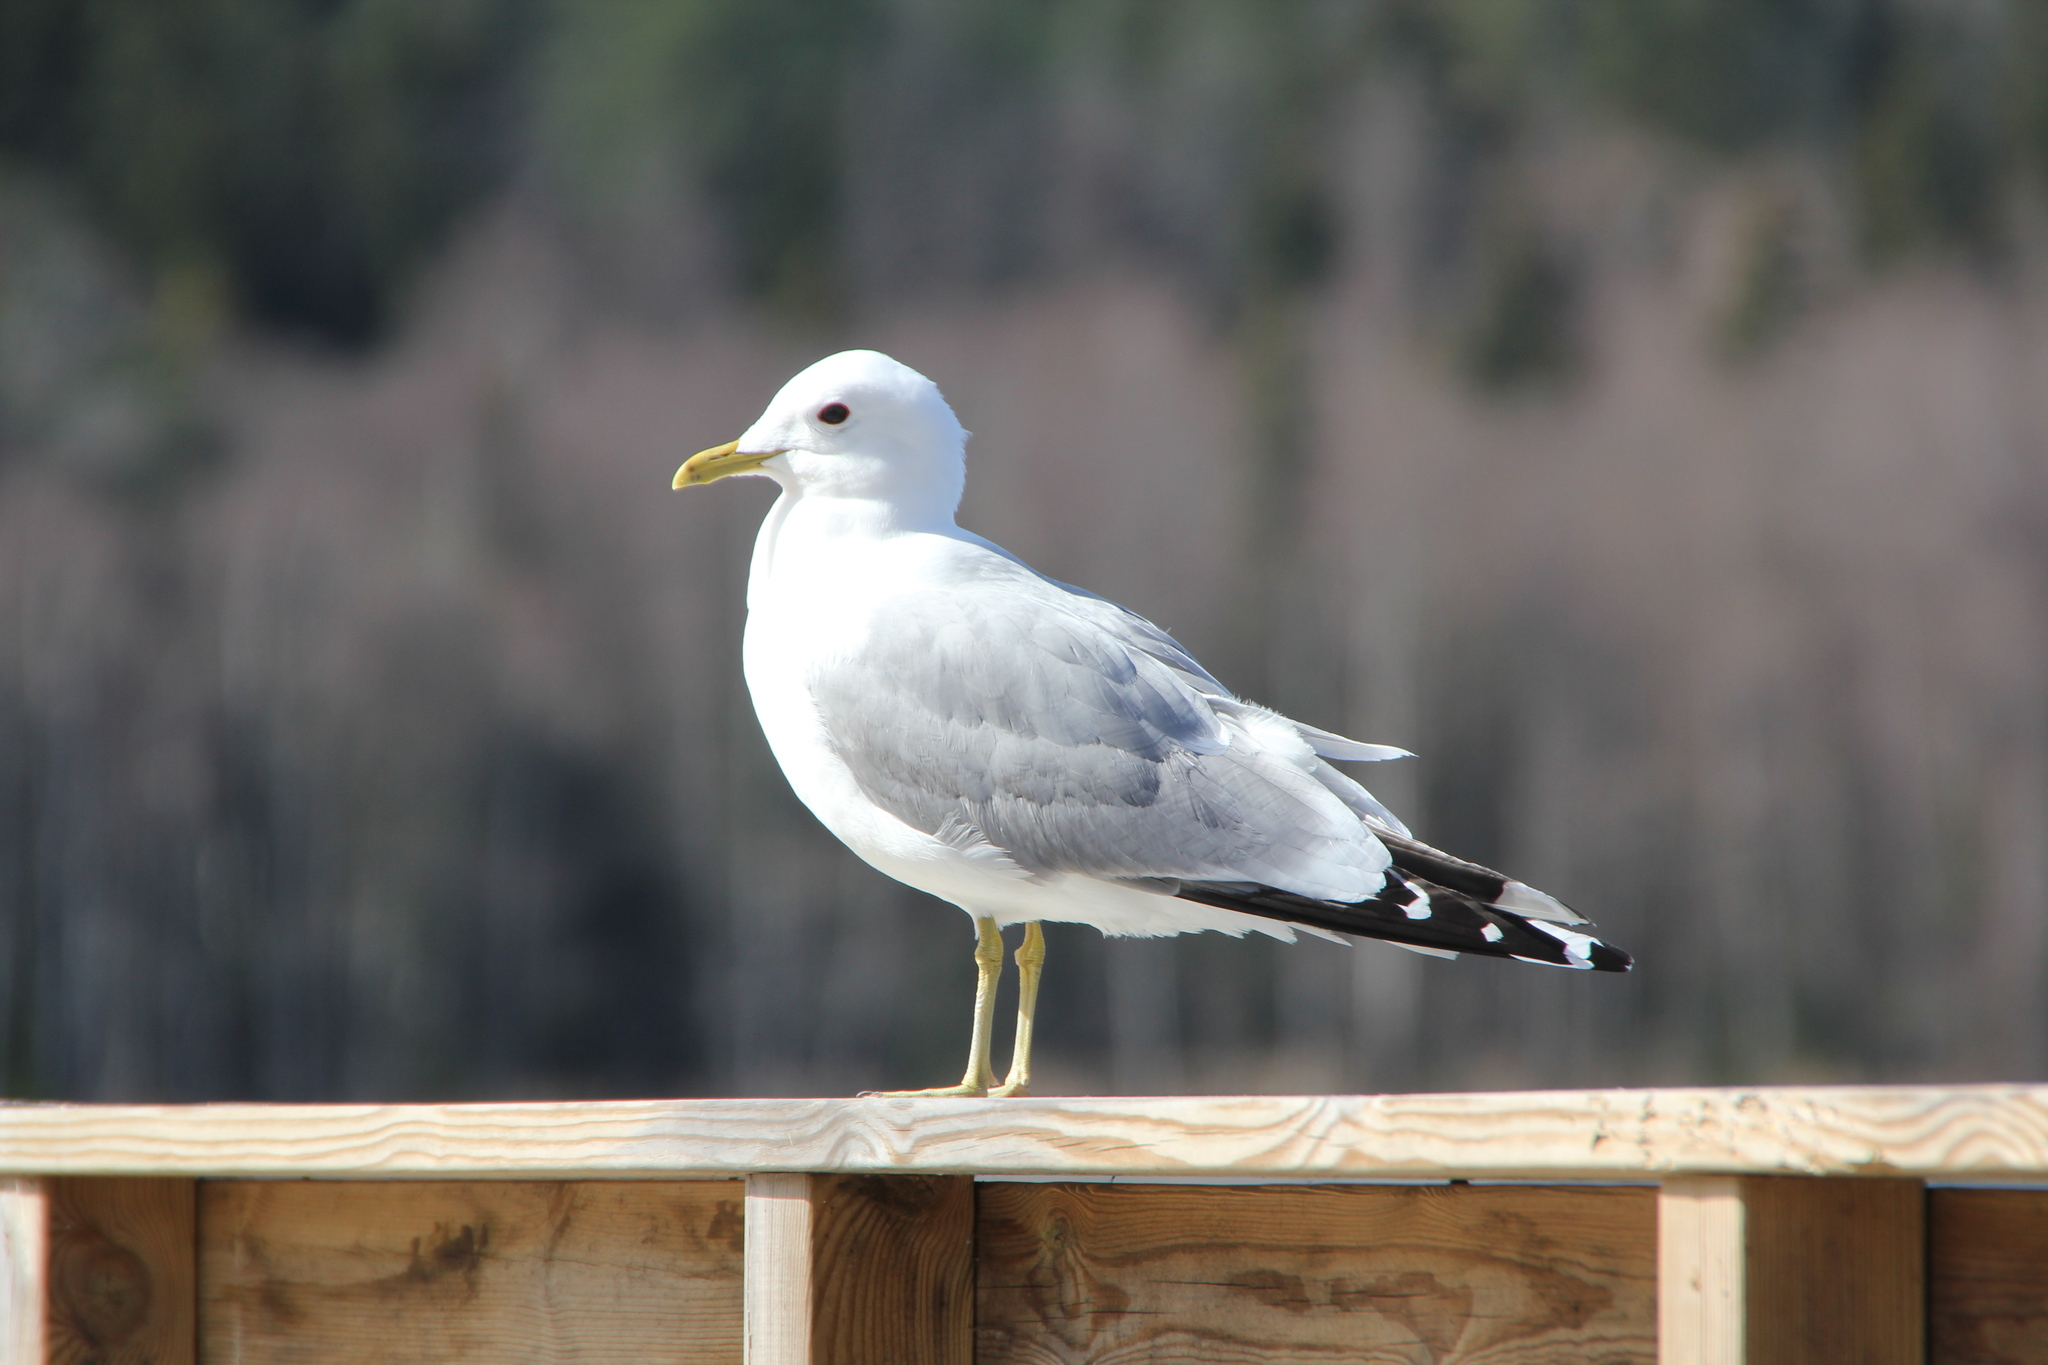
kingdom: Animalia
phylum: Chordata
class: Aves
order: Charadriiformes
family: Laridae
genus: Larus
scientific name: Larus canus
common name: Mew gull
